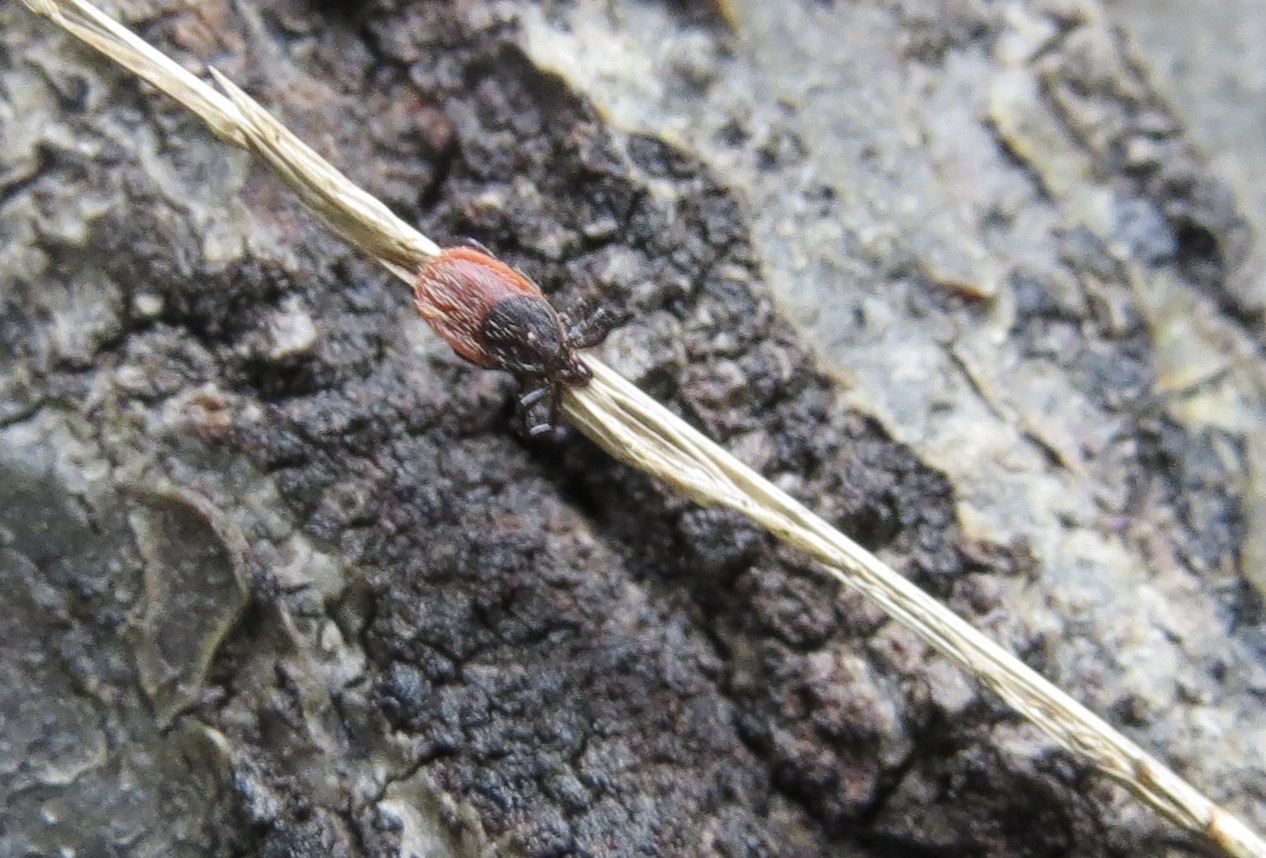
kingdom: Animalia
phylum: Arthropoda
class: Arachnida
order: Ixodida
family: Ixodidae
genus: Ixodes
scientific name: Ixodes pacificus
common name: California black-legged tick
